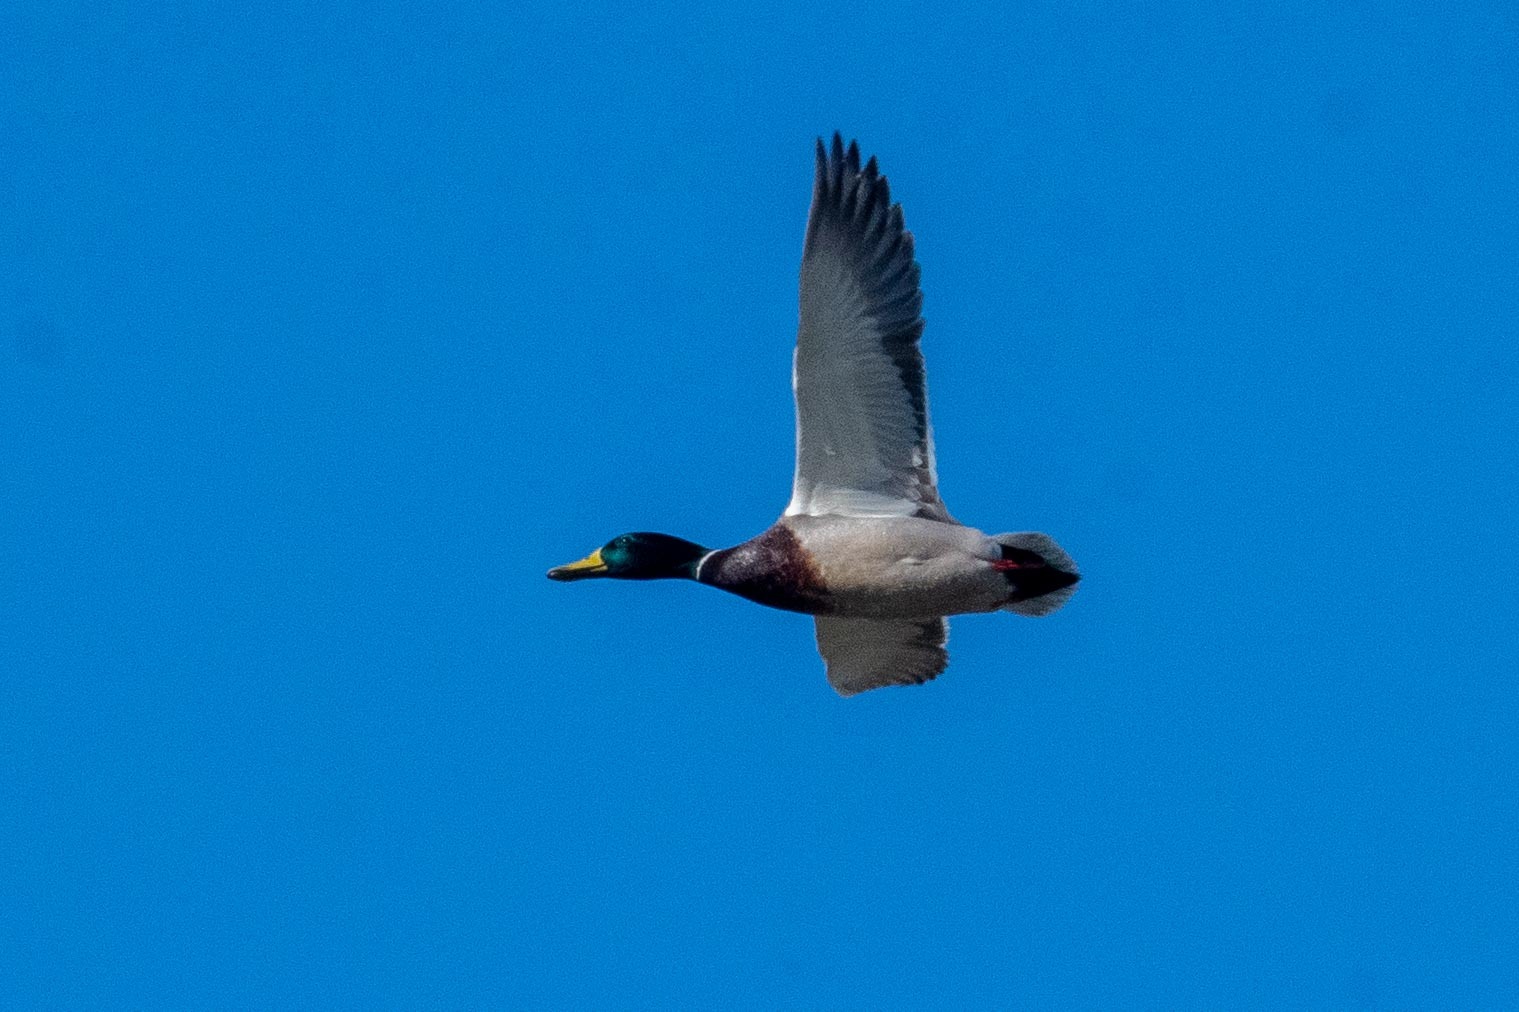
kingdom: Animalia
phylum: Chordata
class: Aves
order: Anseriformes
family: Anatidae
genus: Anas
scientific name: Anas platyrhynchos
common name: Mallard
